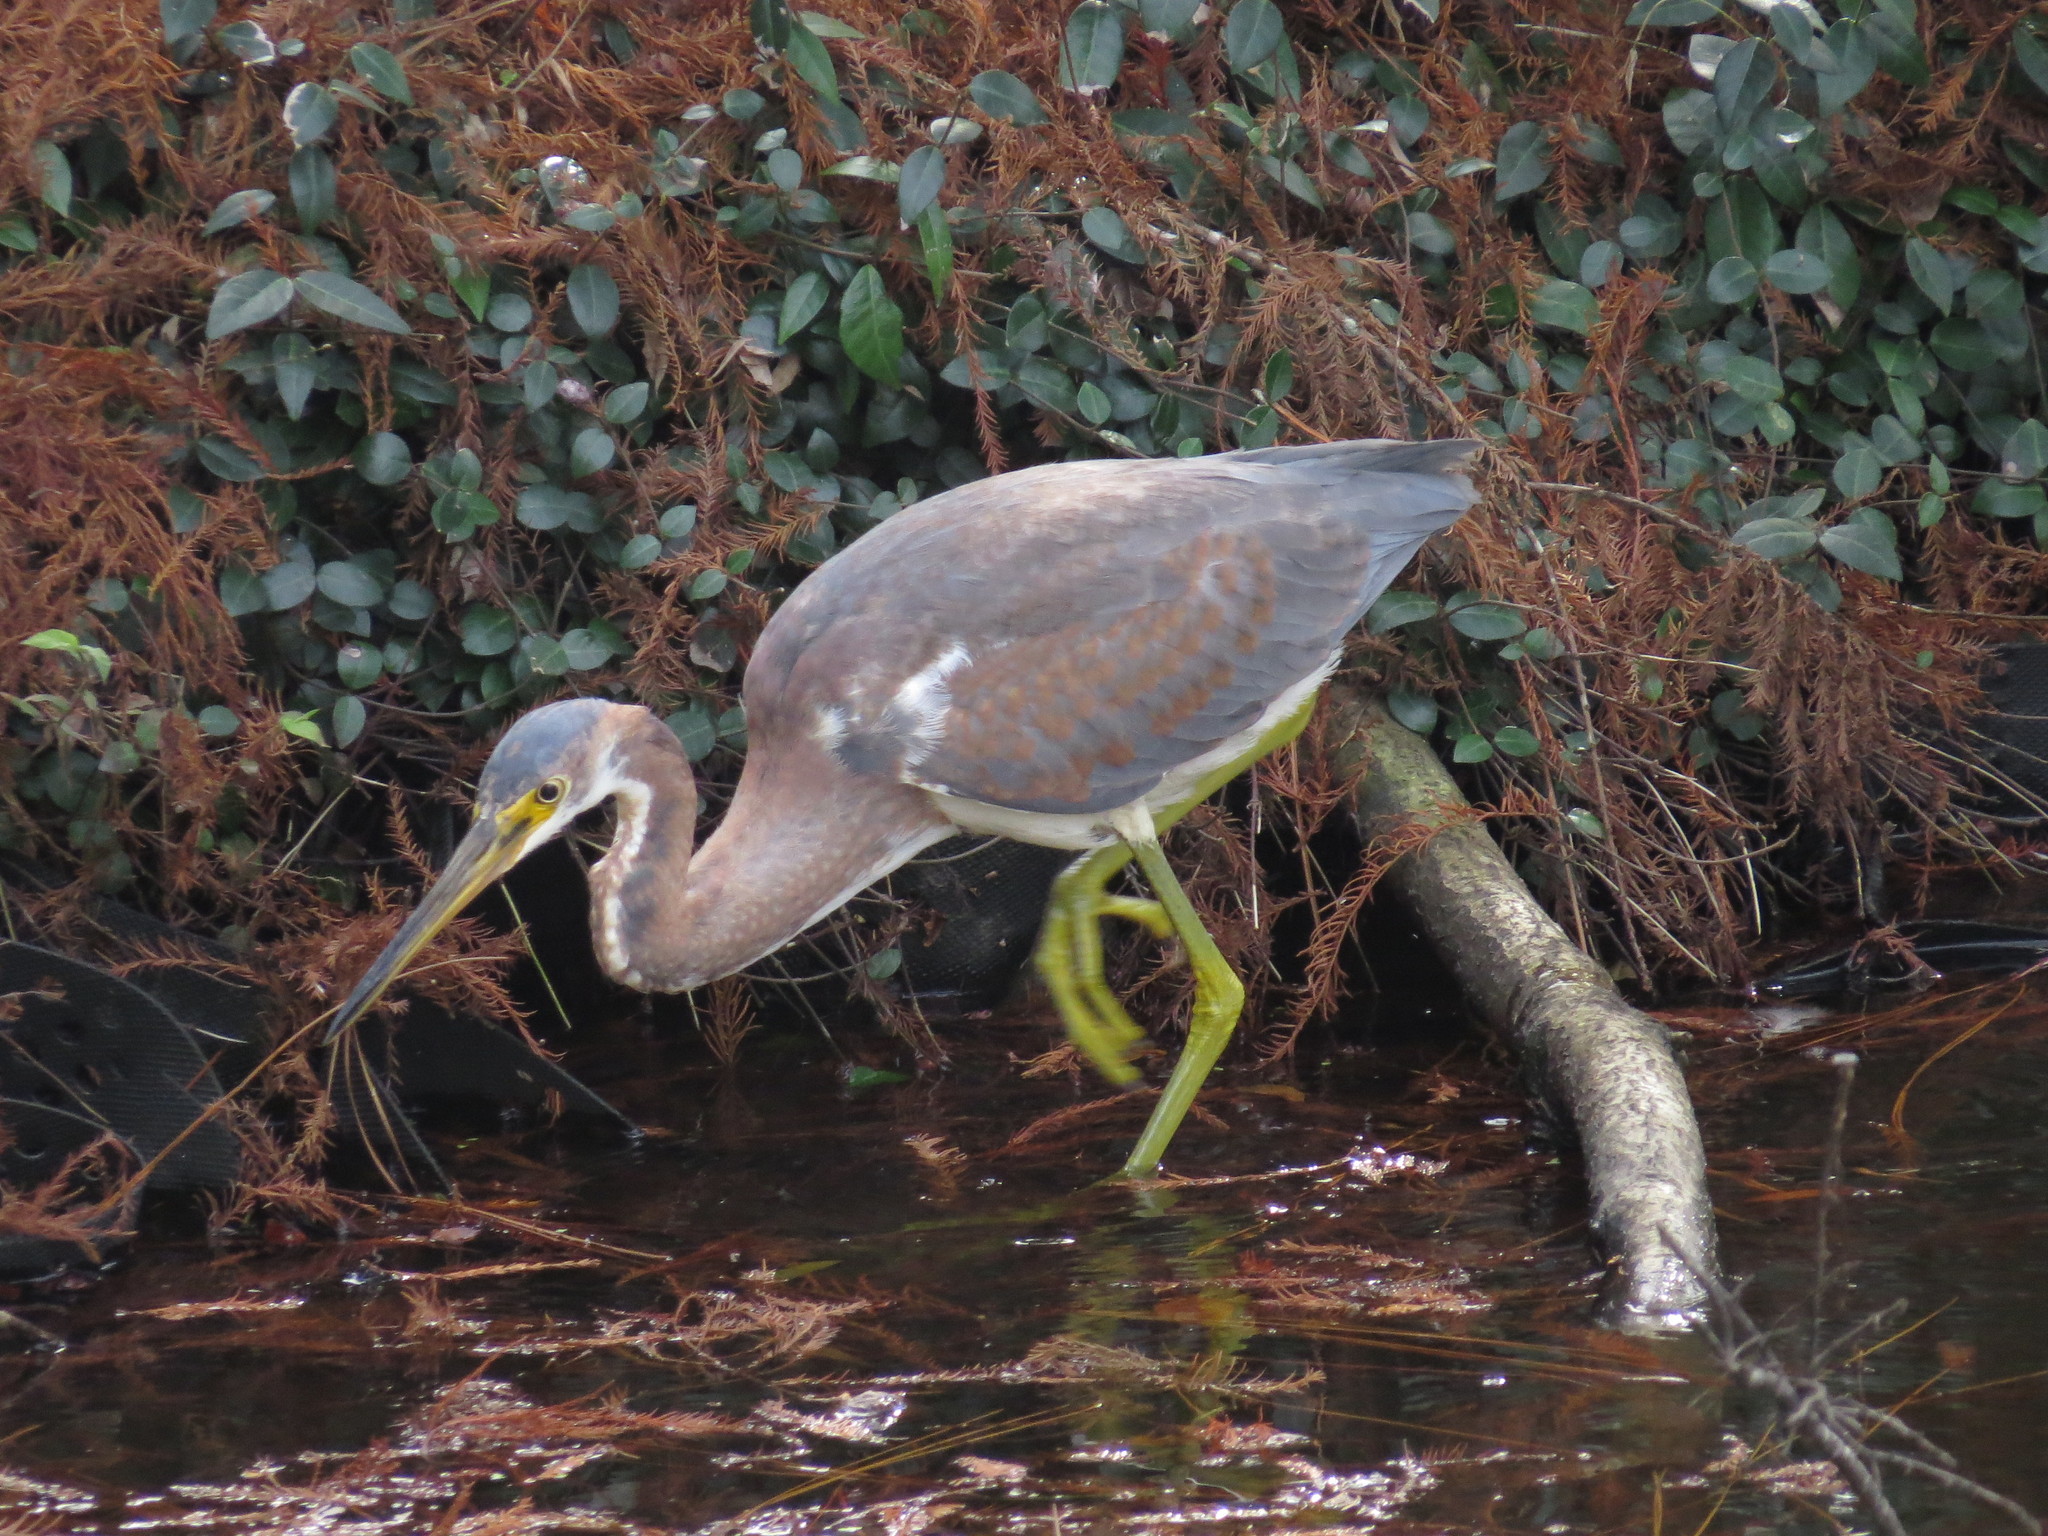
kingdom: Animalia
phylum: Chordata
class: Aves
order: Pelecaniformes
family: Ardeidae
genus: Egretta
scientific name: Egretta tricolor
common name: Tricolored heron
